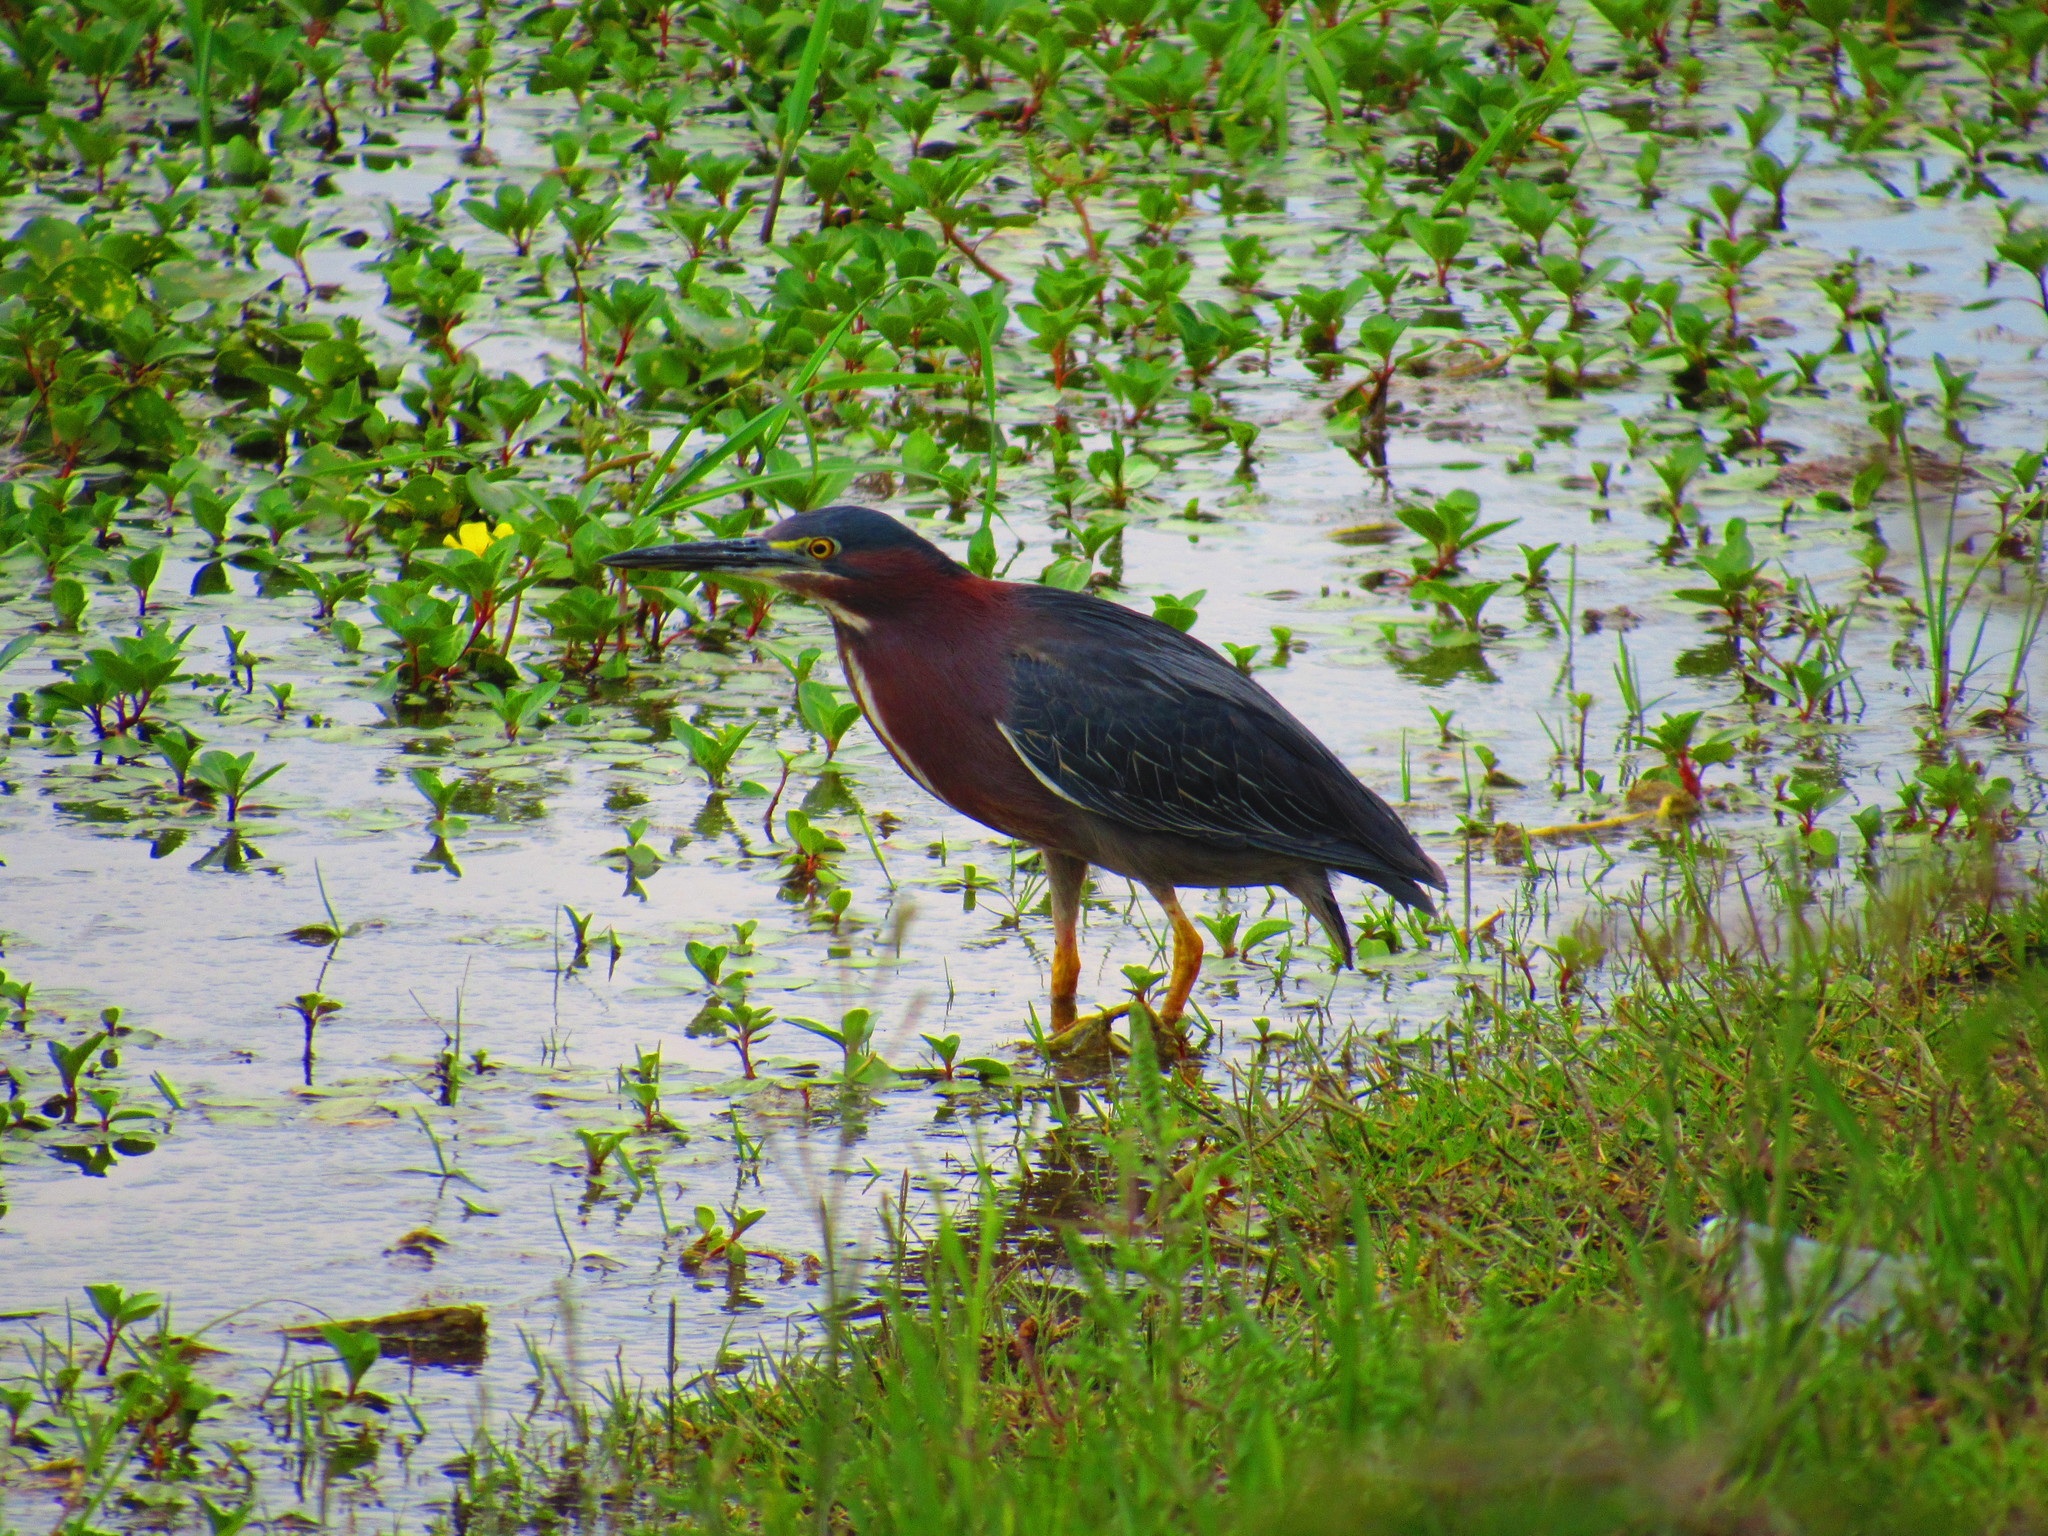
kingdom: Animalia
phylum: Chordata
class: Aves
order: Pelecaniformes
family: Ardeidae
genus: Butorides
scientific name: Butorides virescens
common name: Green heron
